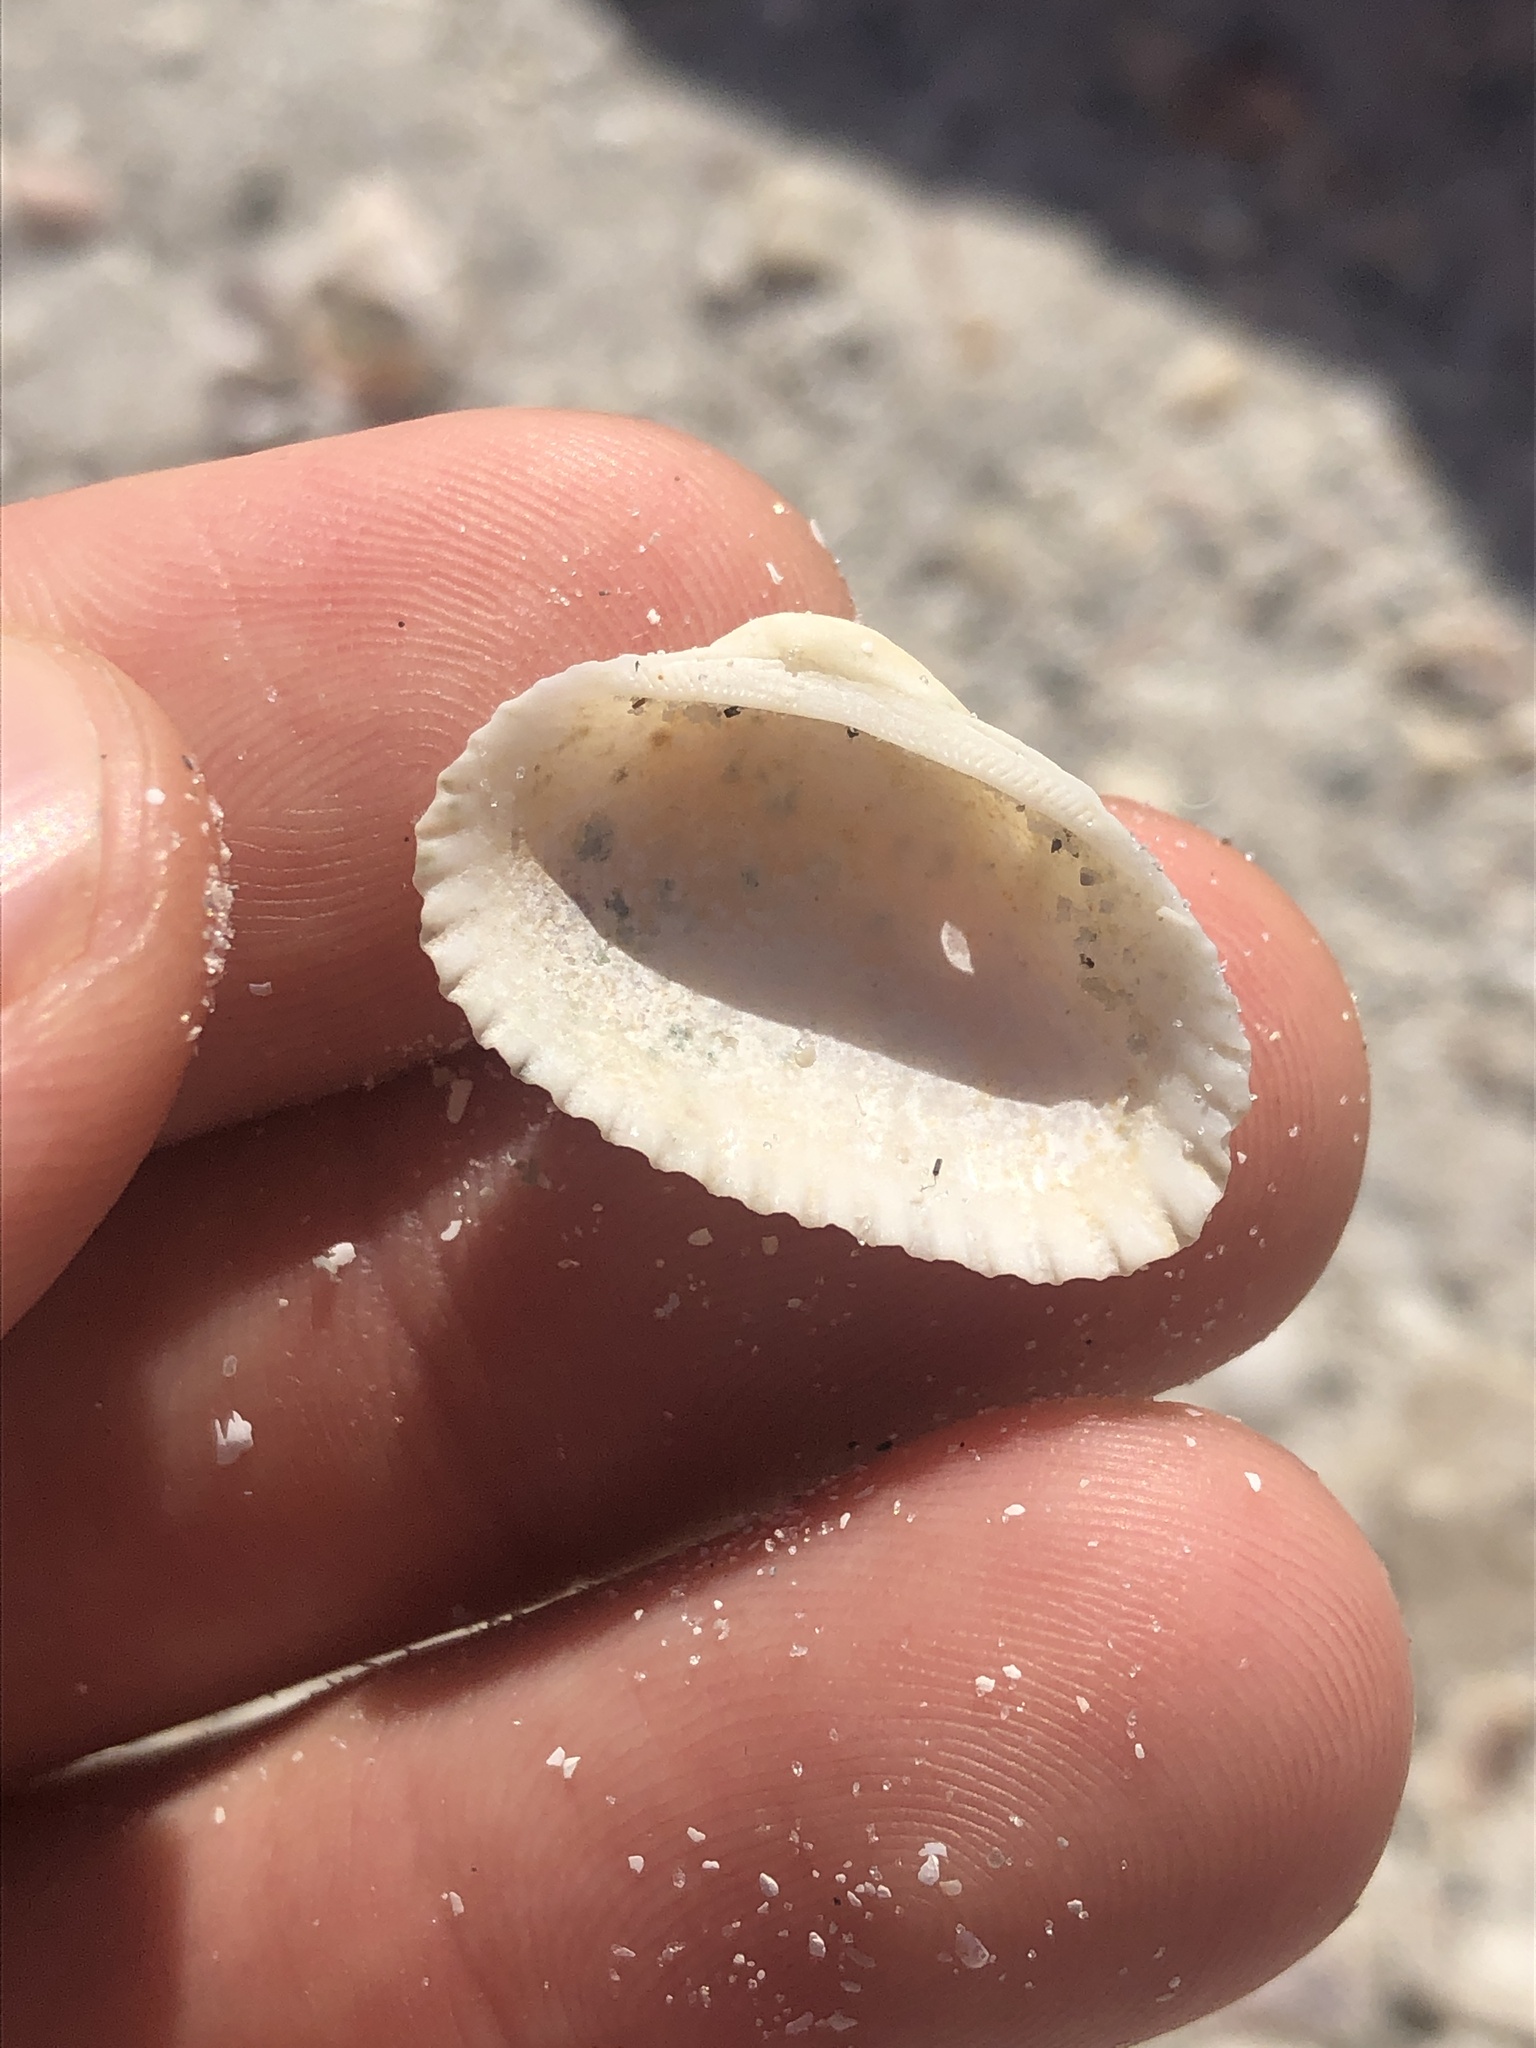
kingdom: Animalia
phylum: Mollusca
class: Bivalvia
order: Arcida
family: Arcidae
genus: Anadara
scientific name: Anadara transversa
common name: Transverse ark
